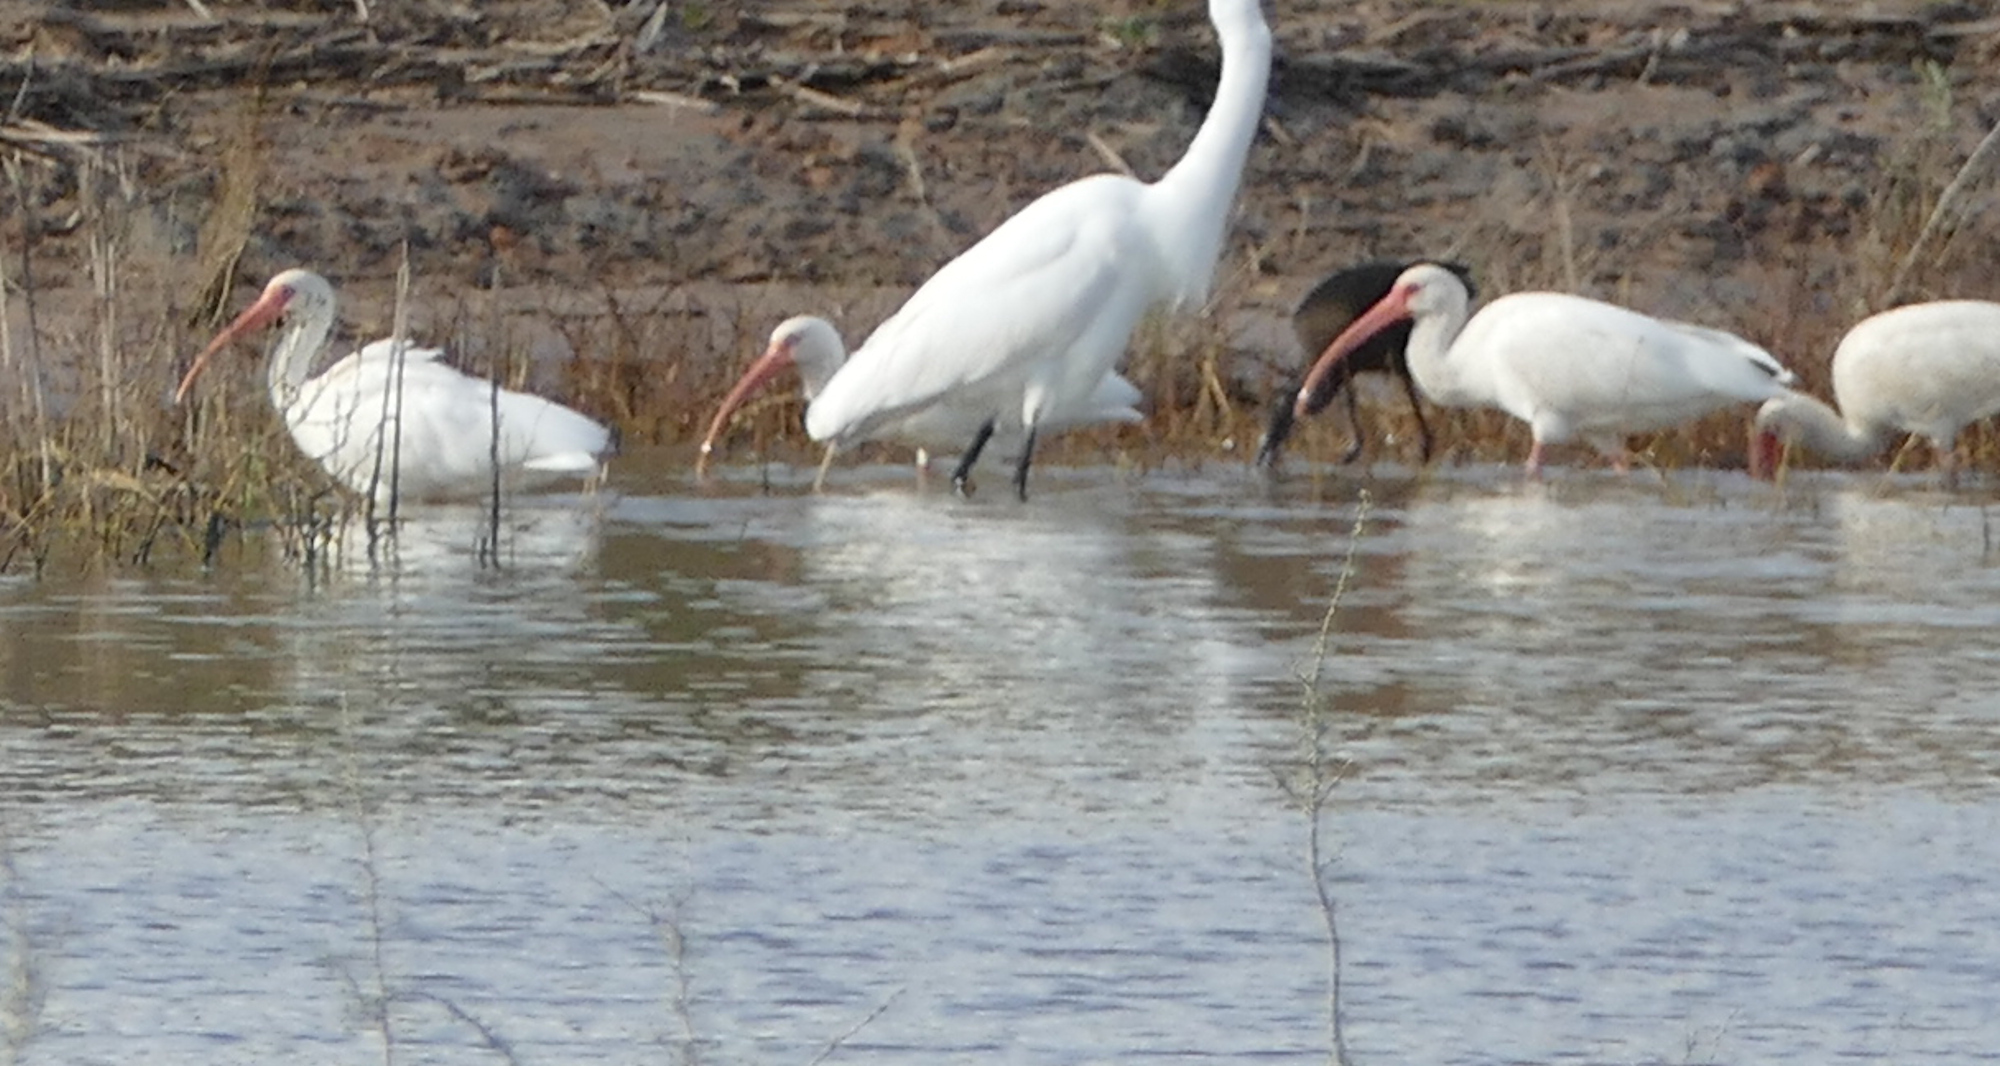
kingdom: Animalia
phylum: Chordata
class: Aves
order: Pelecaniformes
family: Threskiornithidae
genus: Eudocimus
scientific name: Eudocimus albus
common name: White ibis
